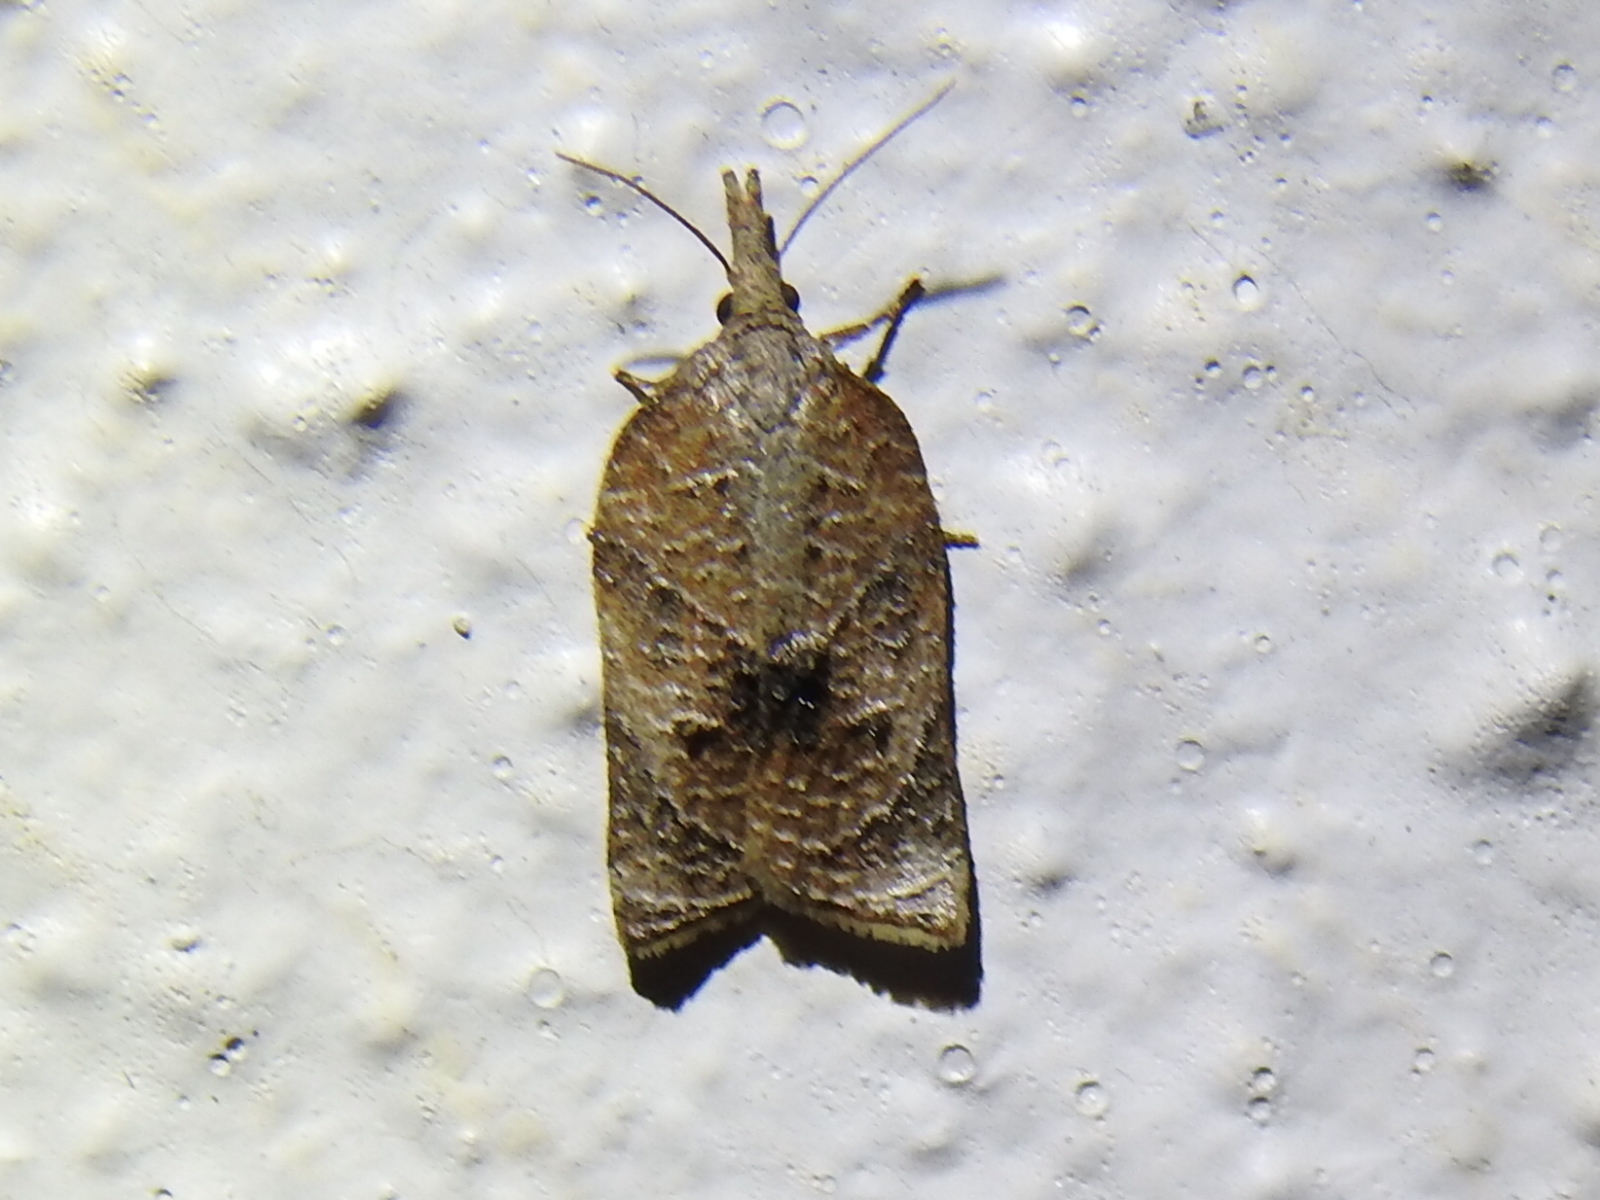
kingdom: Animalia
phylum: Arthropoda
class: Insecta
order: Lepidoptera
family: Tortricidae
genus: Platynota
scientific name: Platynota rostrana
